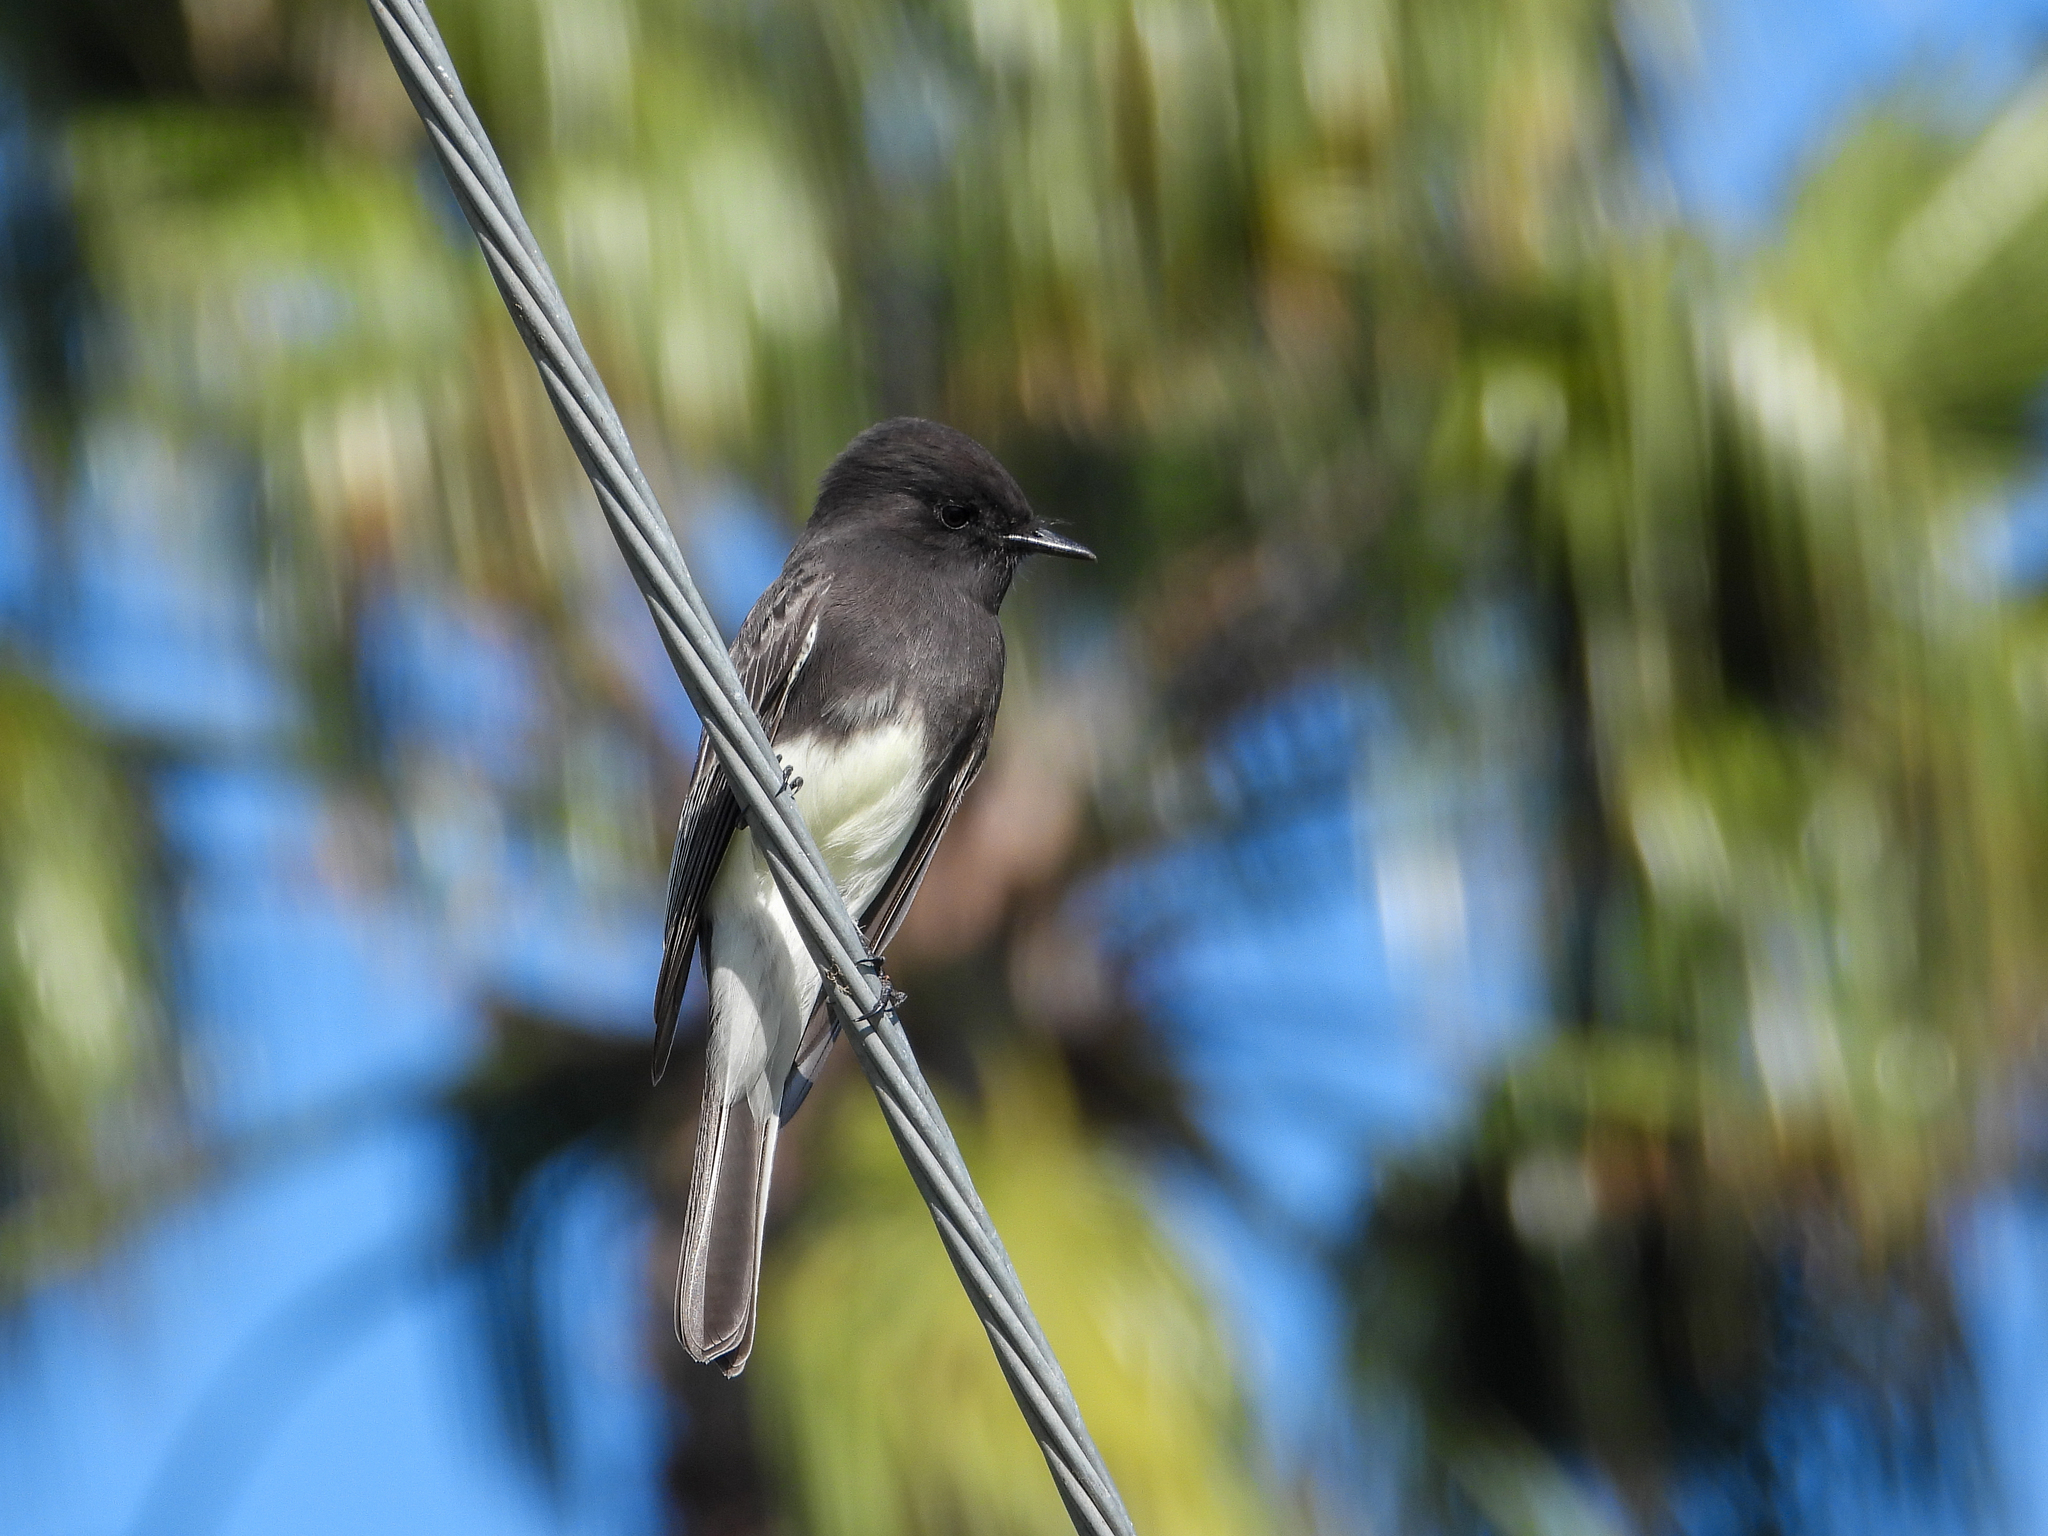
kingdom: Animalia
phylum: Chordata
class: Aves
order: Passeriformes
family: Tyrannidae
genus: Sayornis
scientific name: Sayornis nigricans
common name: Black phoebe
